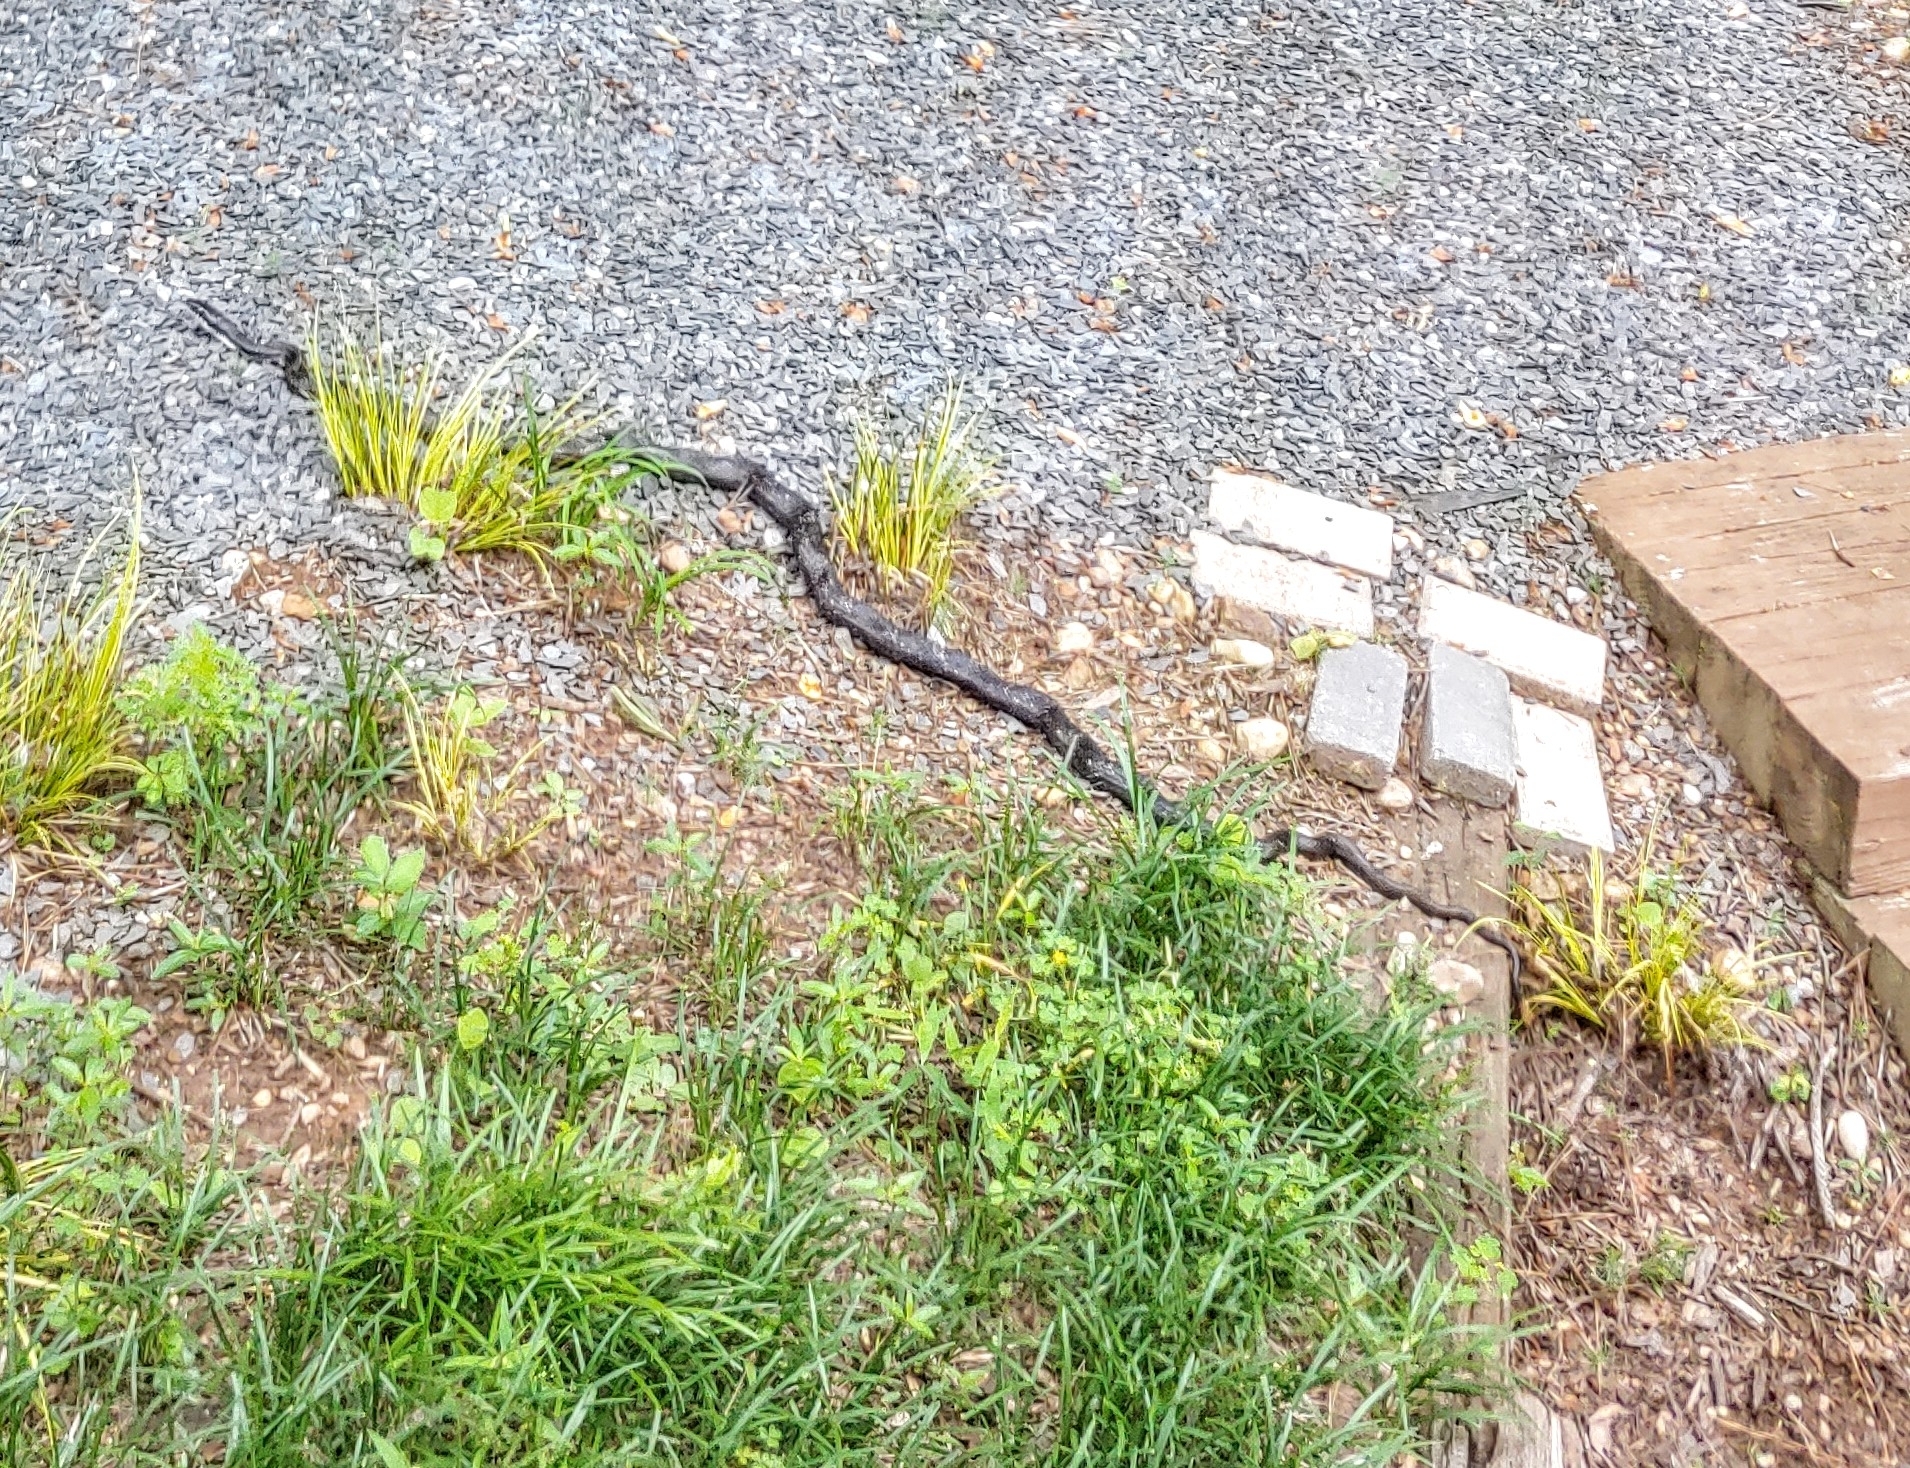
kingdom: Animalia
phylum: Chordata
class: Squamata
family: Colubridae
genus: Pantherophis
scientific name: Pantherophis
